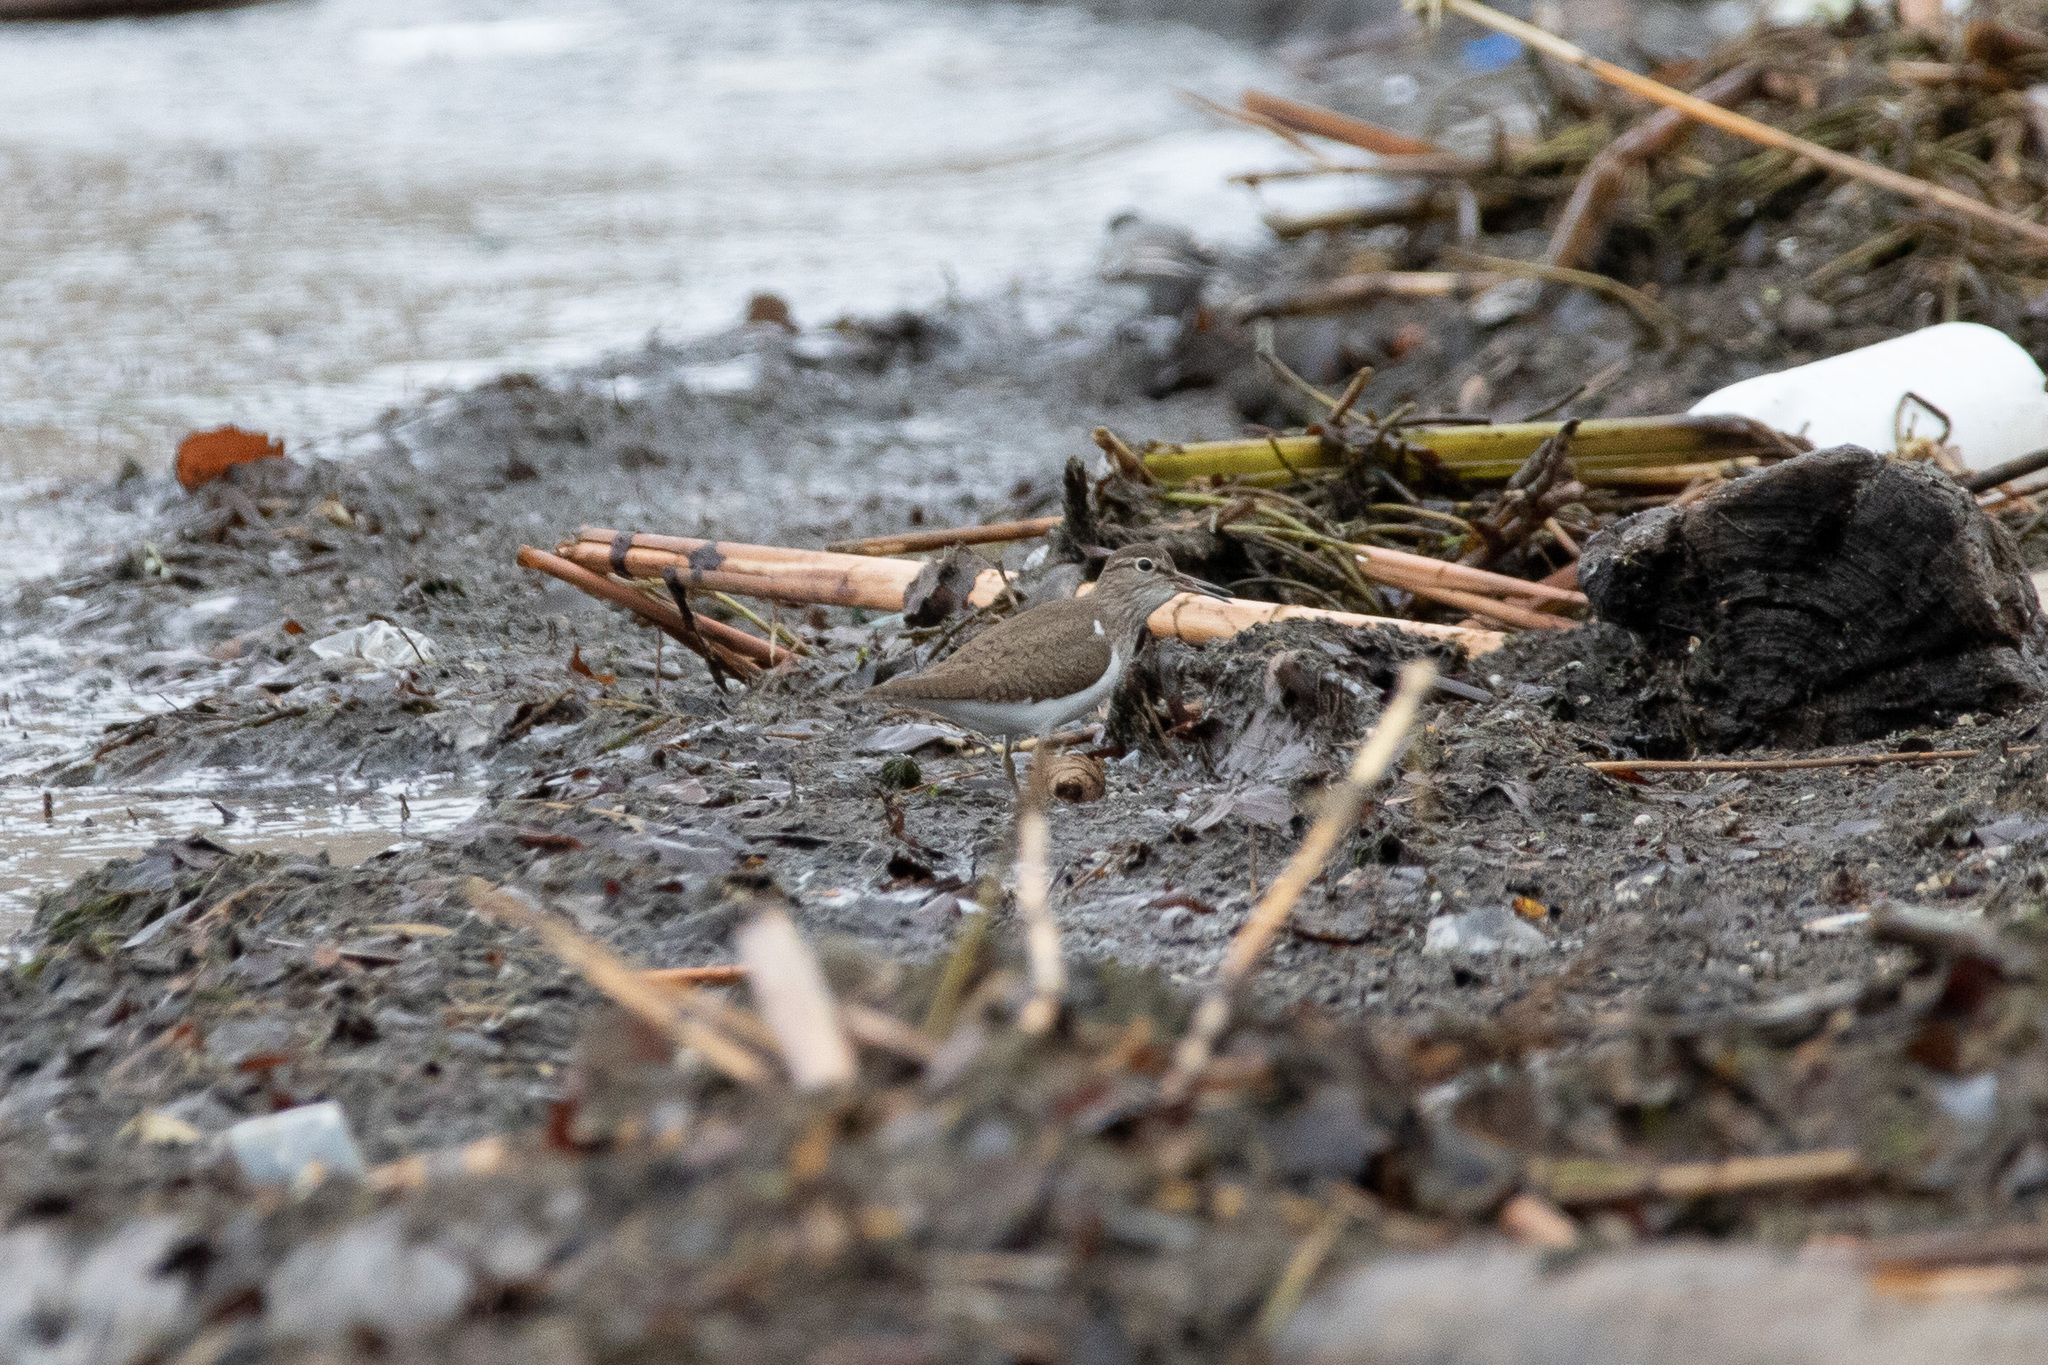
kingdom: Animalia
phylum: Chordata
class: Aves
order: Charadriiformes
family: Scolopacidae
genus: Actitis
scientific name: Actitis hypoleucos
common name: Common sandpiper
